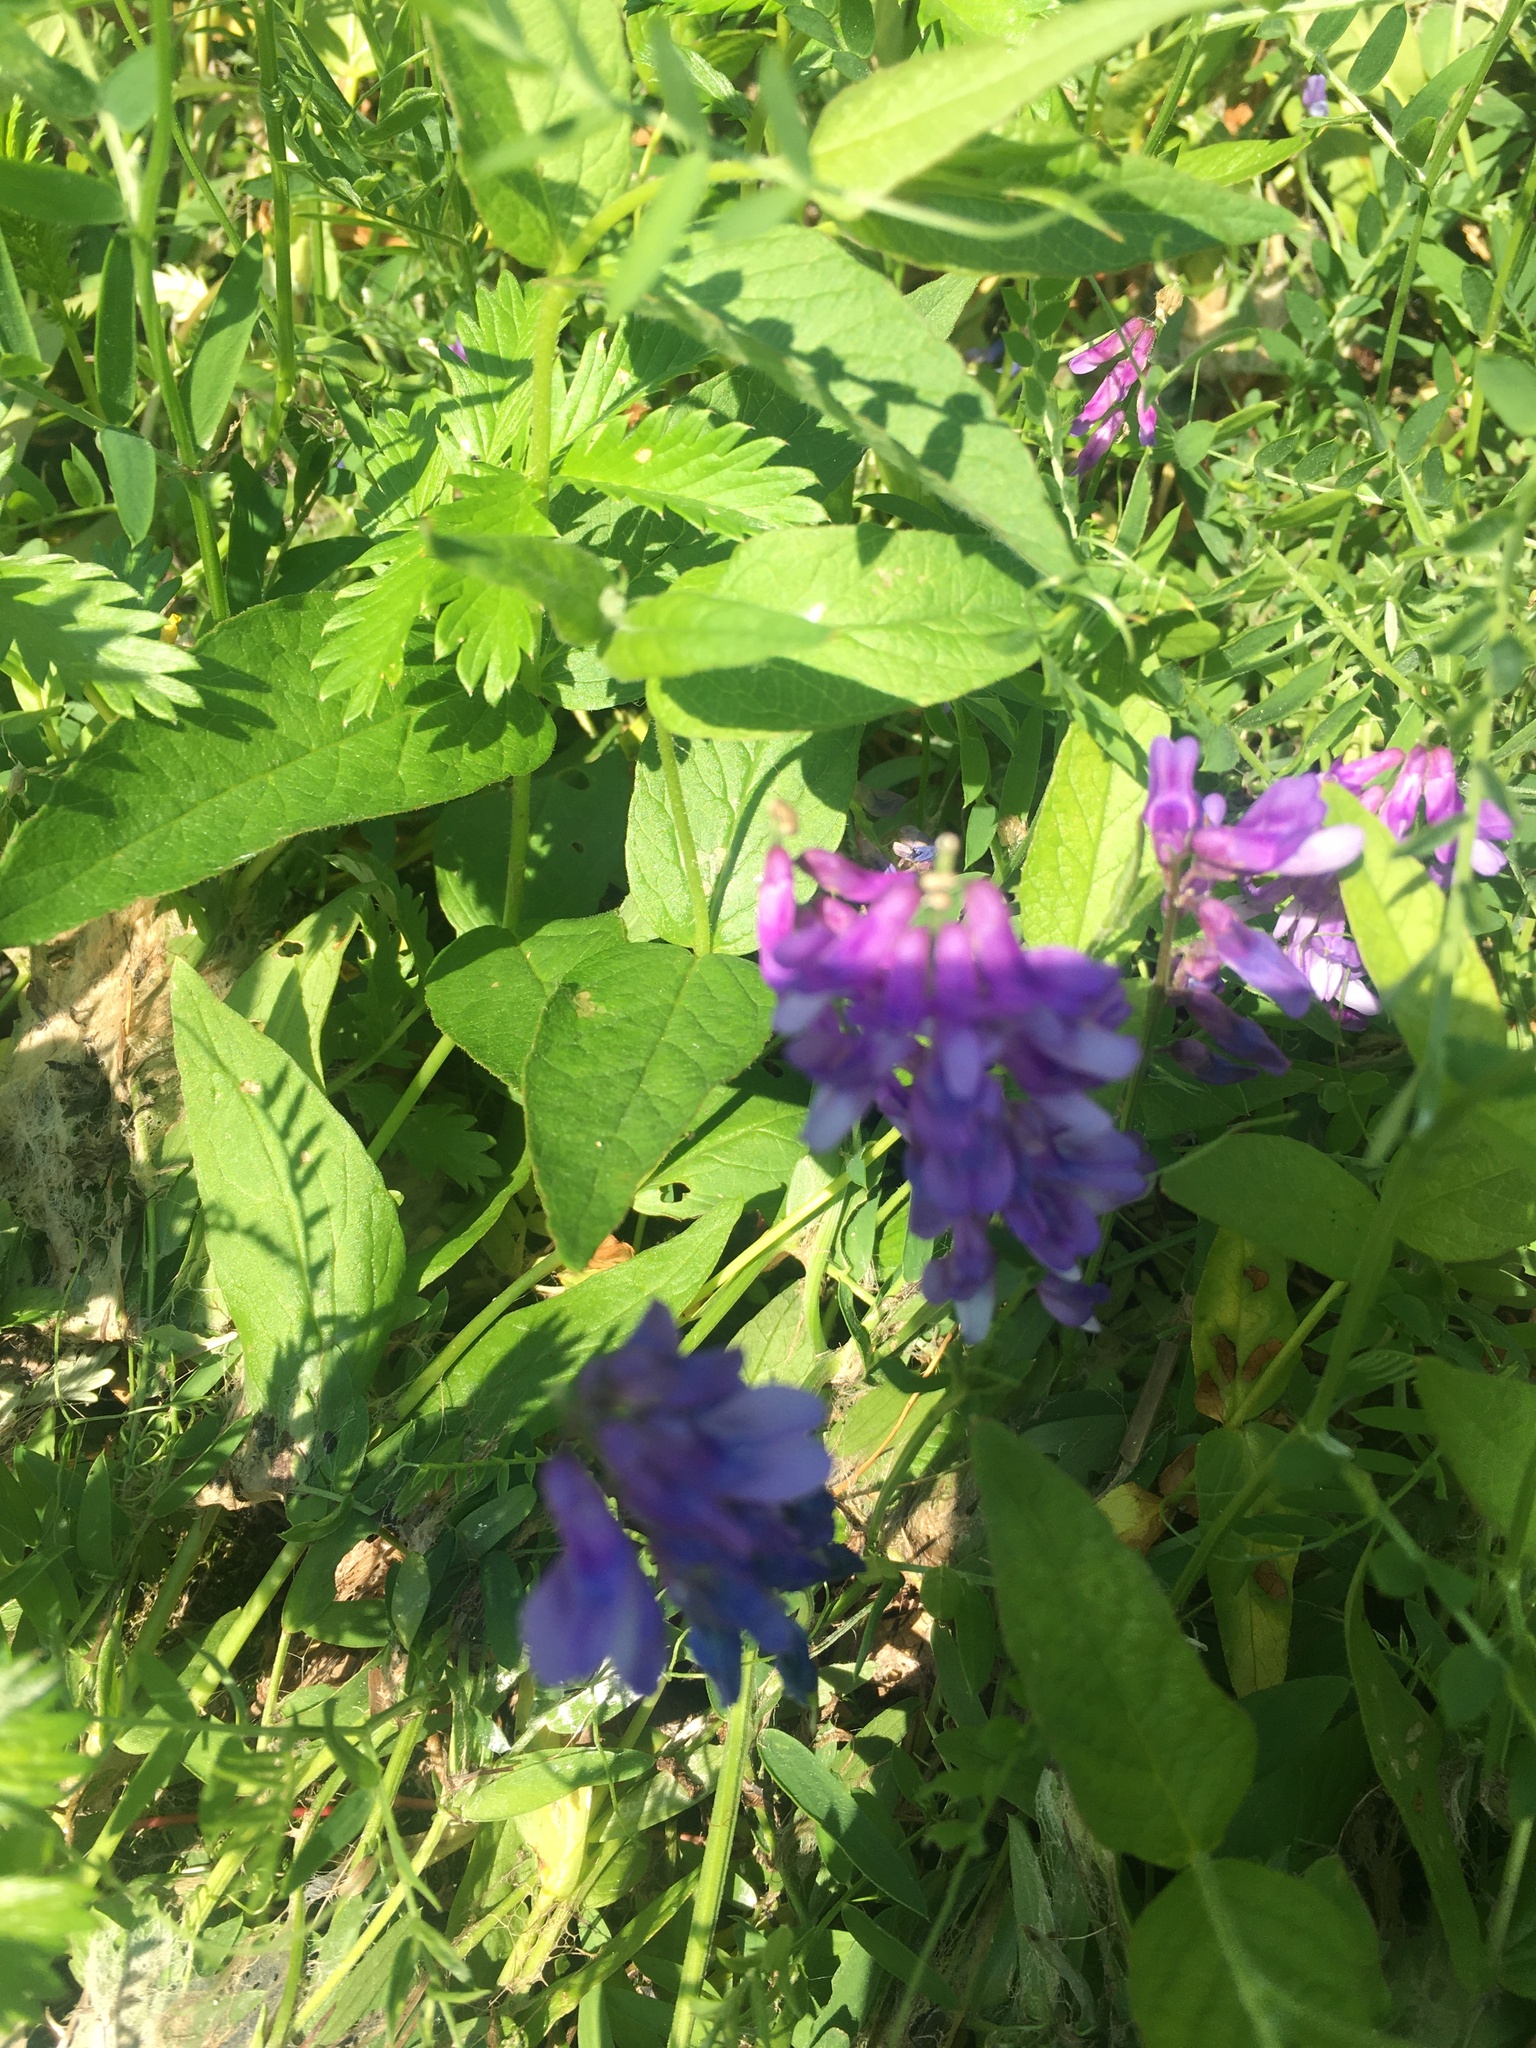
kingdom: Plantae
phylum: Tracheophyta
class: Magnoliopsida
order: Fabales
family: Fabaceae
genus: Vicia
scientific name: Vicia cracca
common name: Bird vetch
